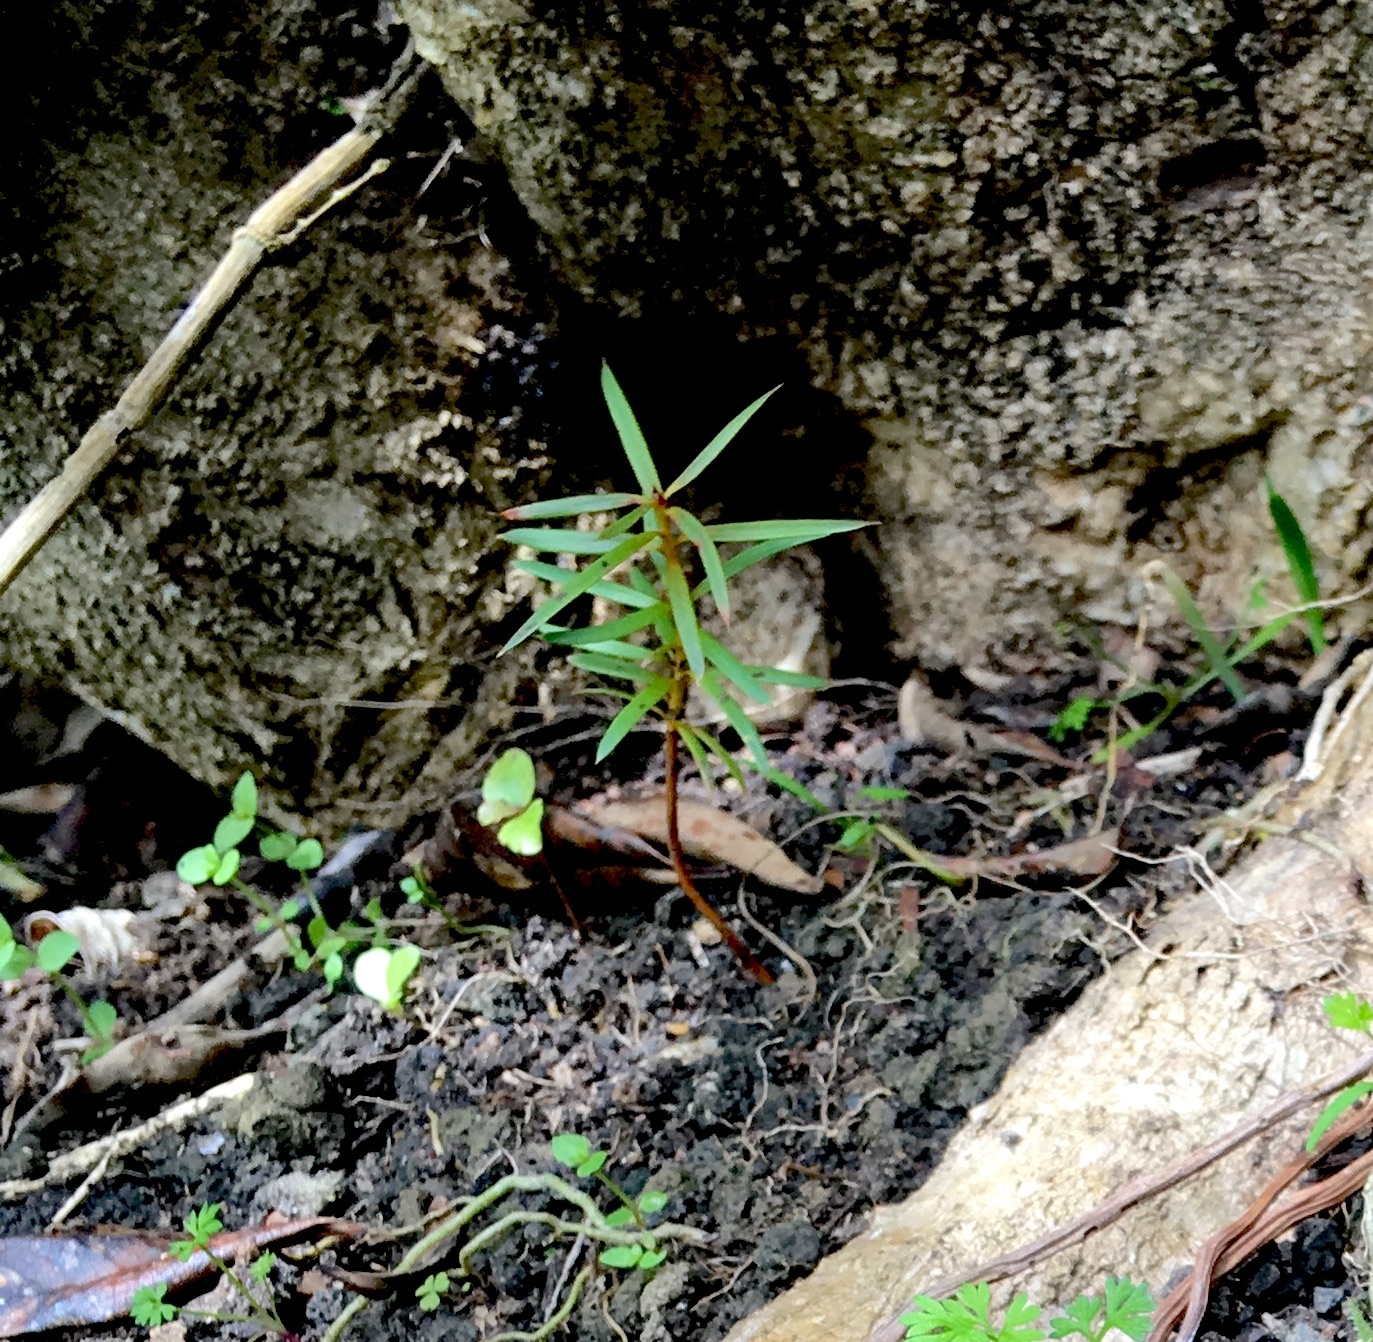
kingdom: Plantae
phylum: Tracheophyta
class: Pinopsida
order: Pinales
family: Podocarpaceae
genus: Podocarpus
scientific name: Podocarpus totara
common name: Totara
